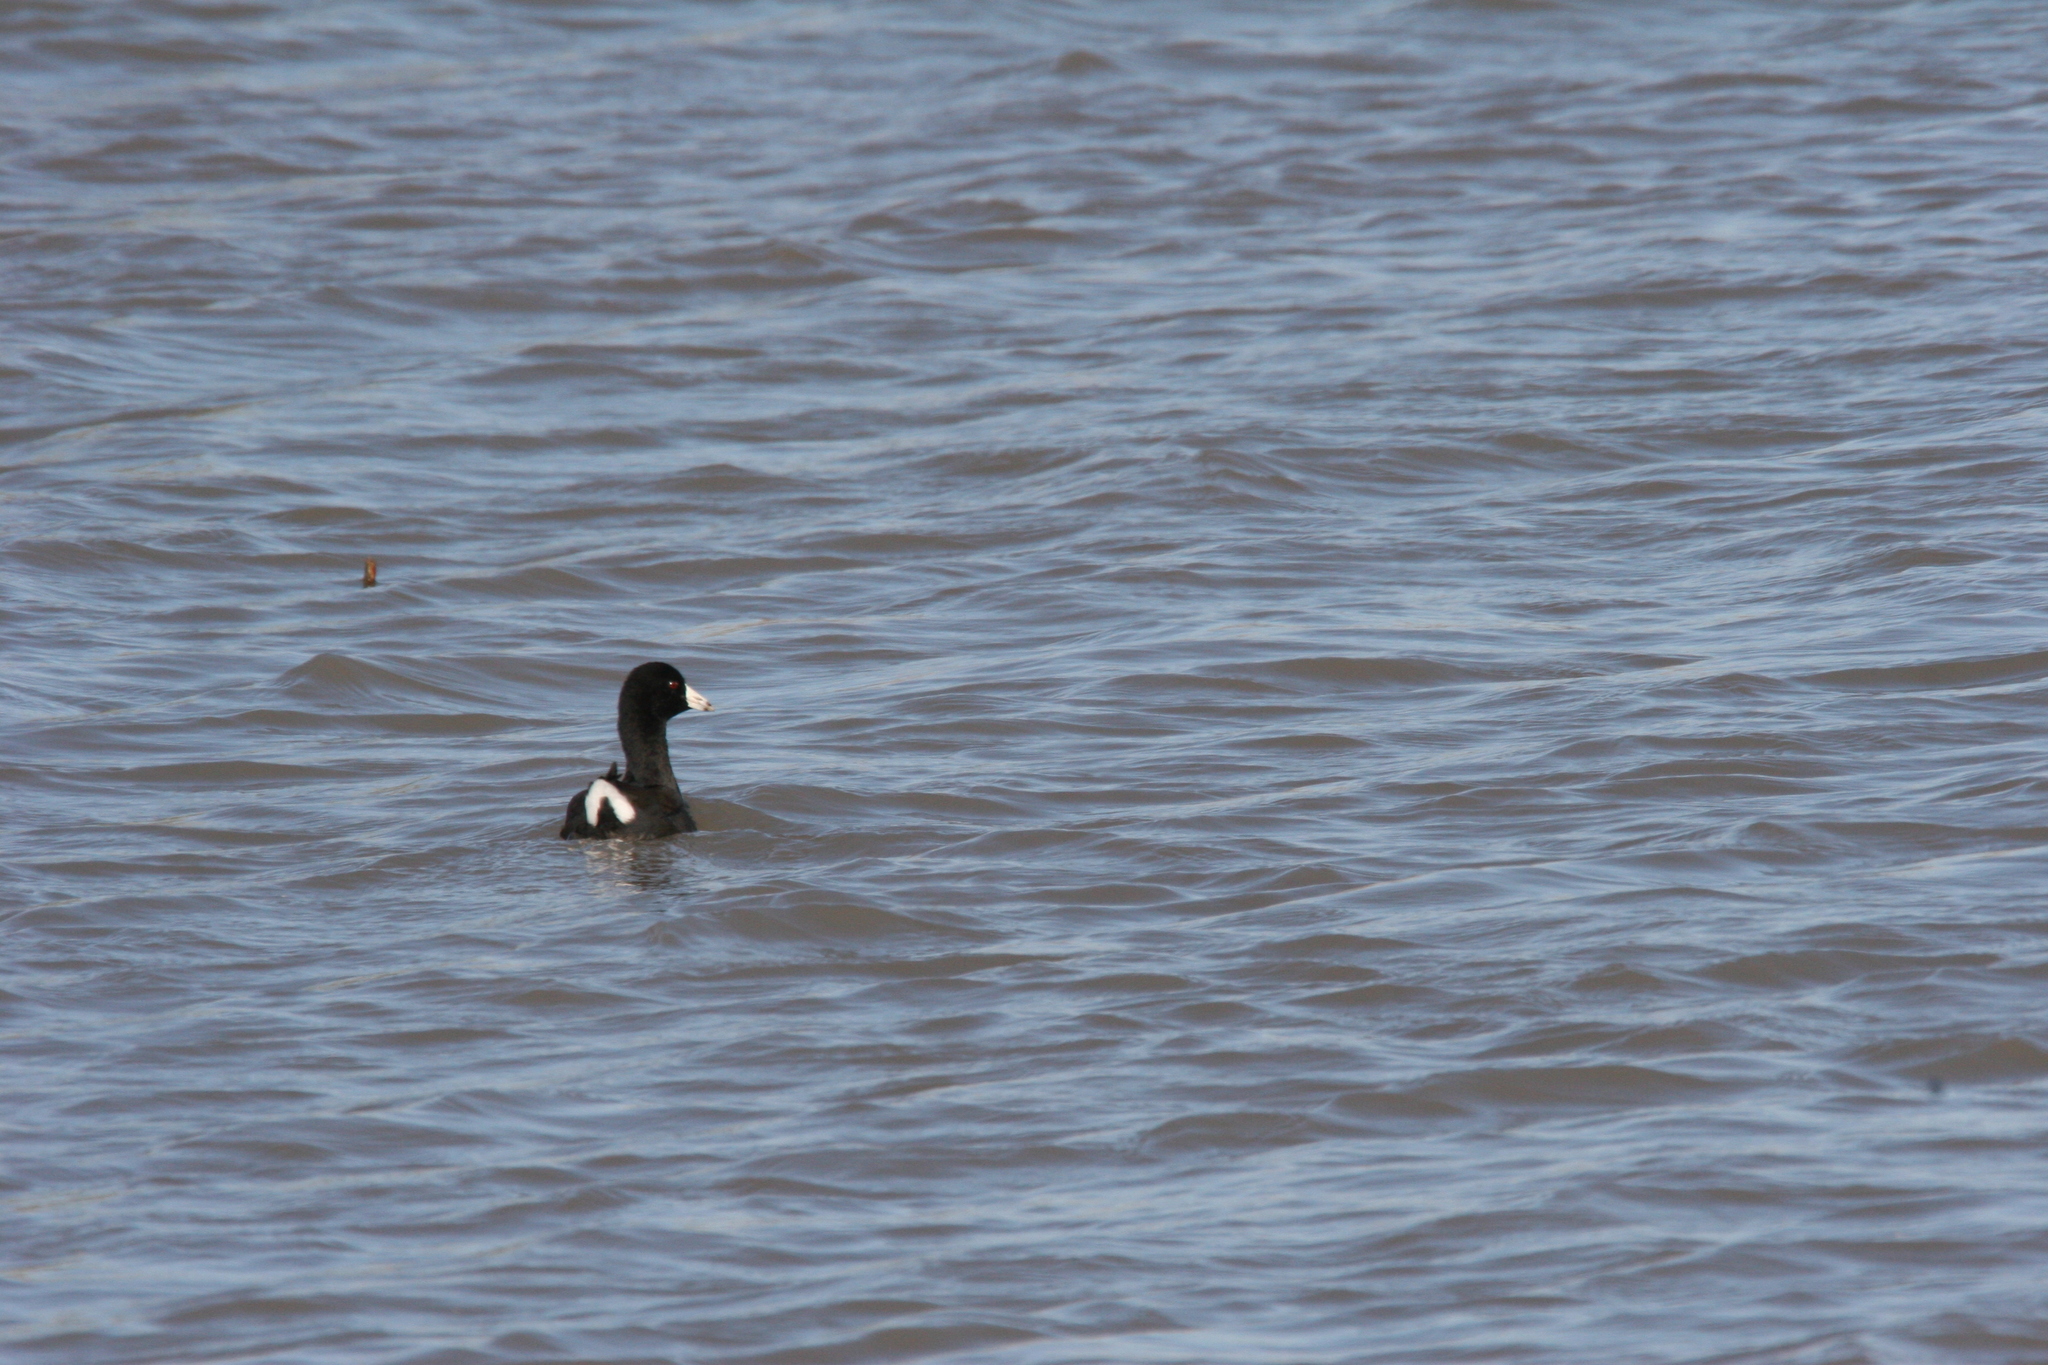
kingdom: Animalia
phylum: Chordata
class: Aves
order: Gruiformes
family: Rallidae
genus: Fulica
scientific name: Fulica americana
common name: American coot
